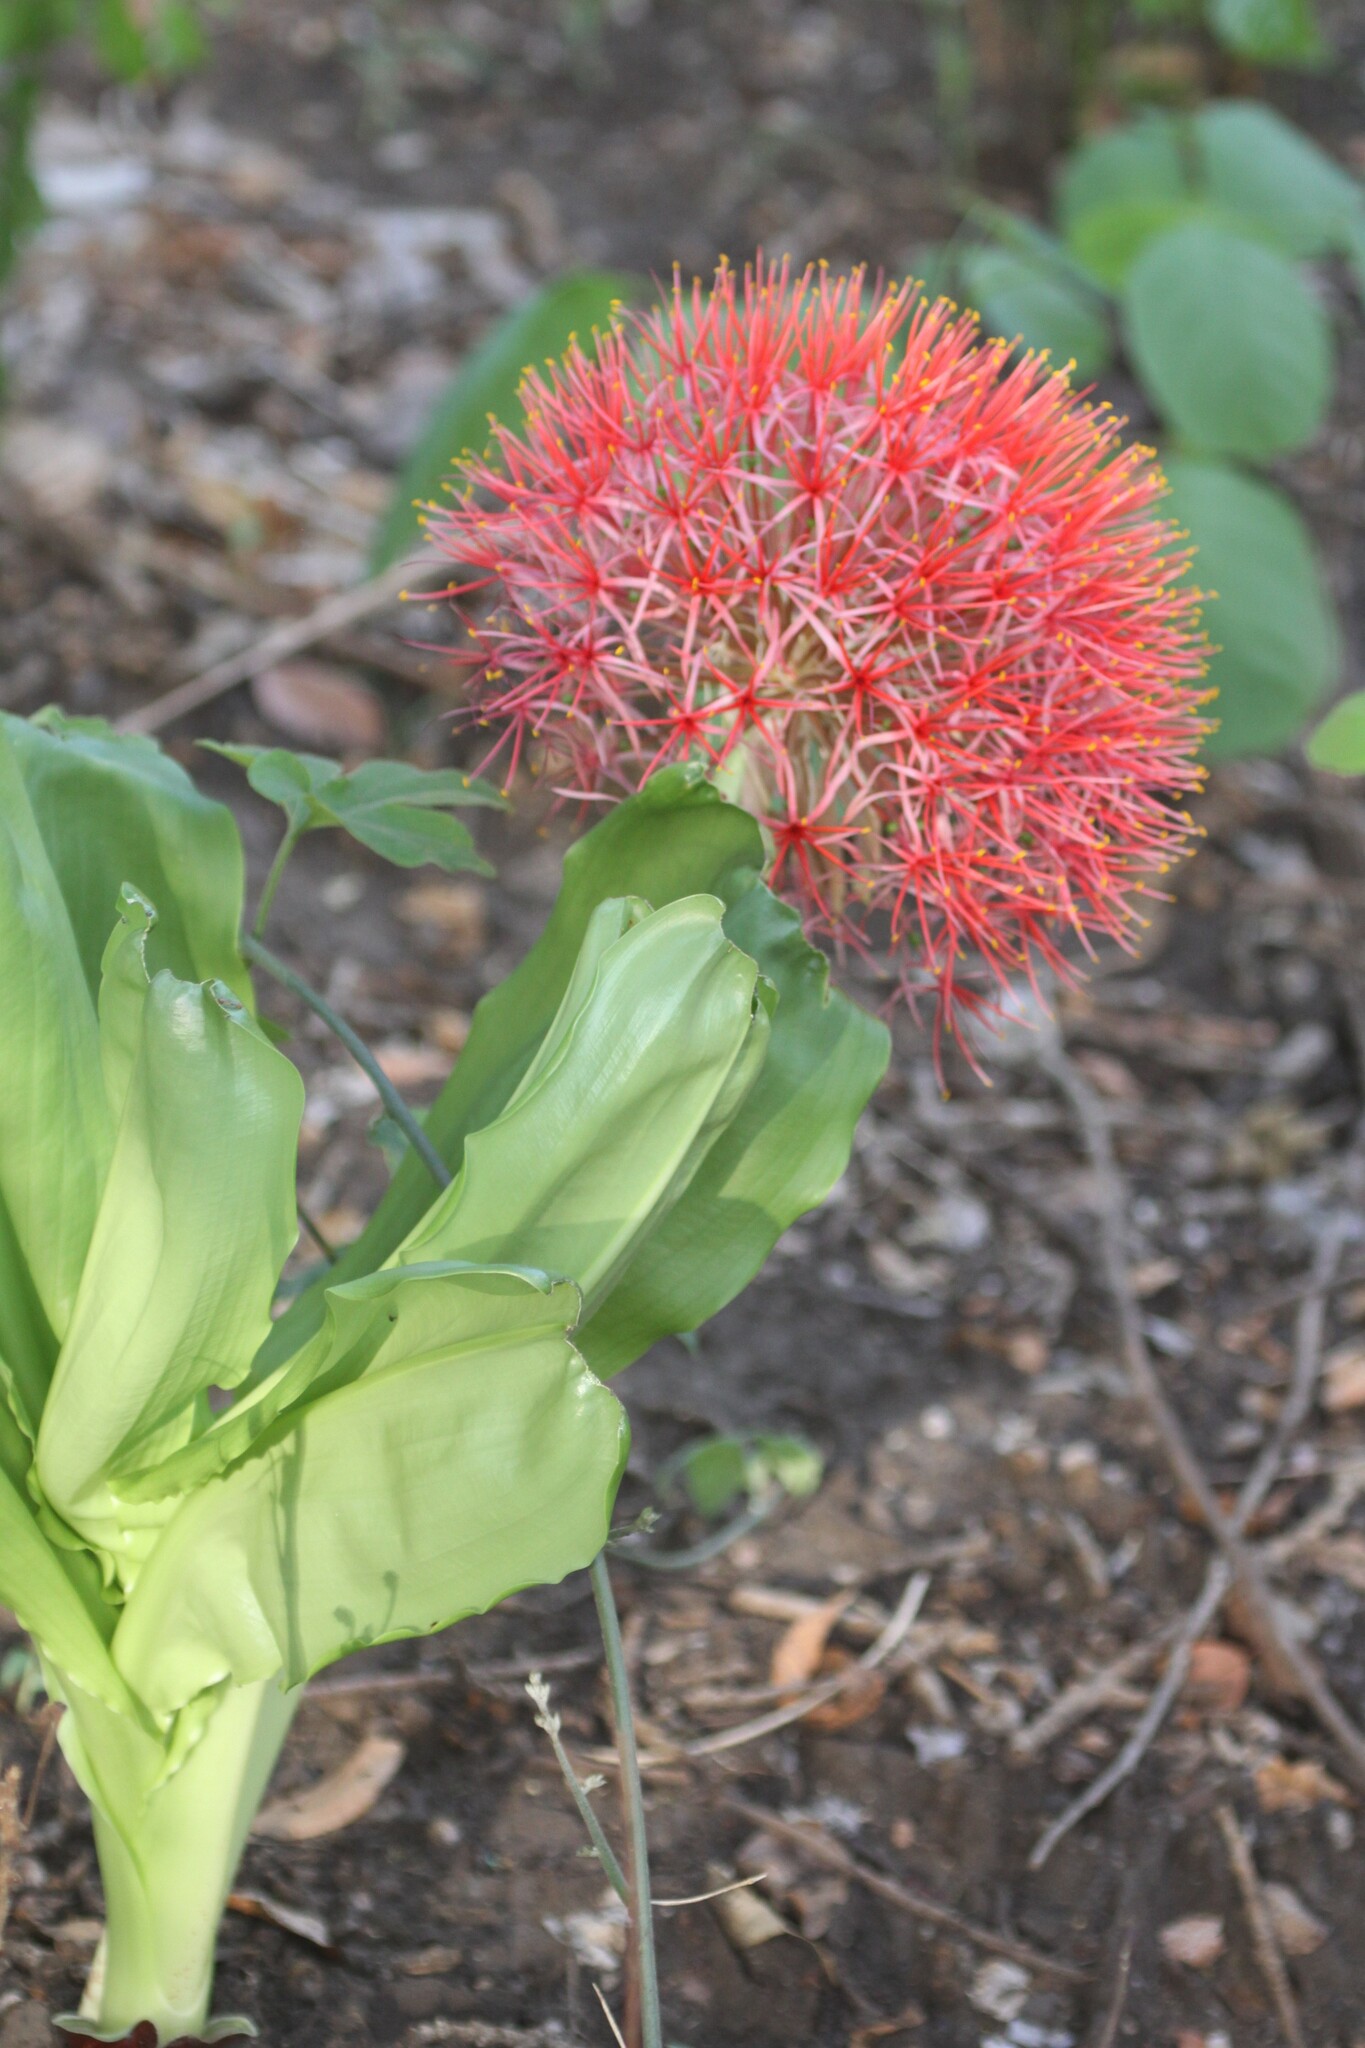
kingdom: Plantae
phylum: Tracheophyta
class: Liliopsida
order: Asparagales
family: Amaryllidaceae
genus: Scadoxus
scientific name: Scadoxus multiflorus
